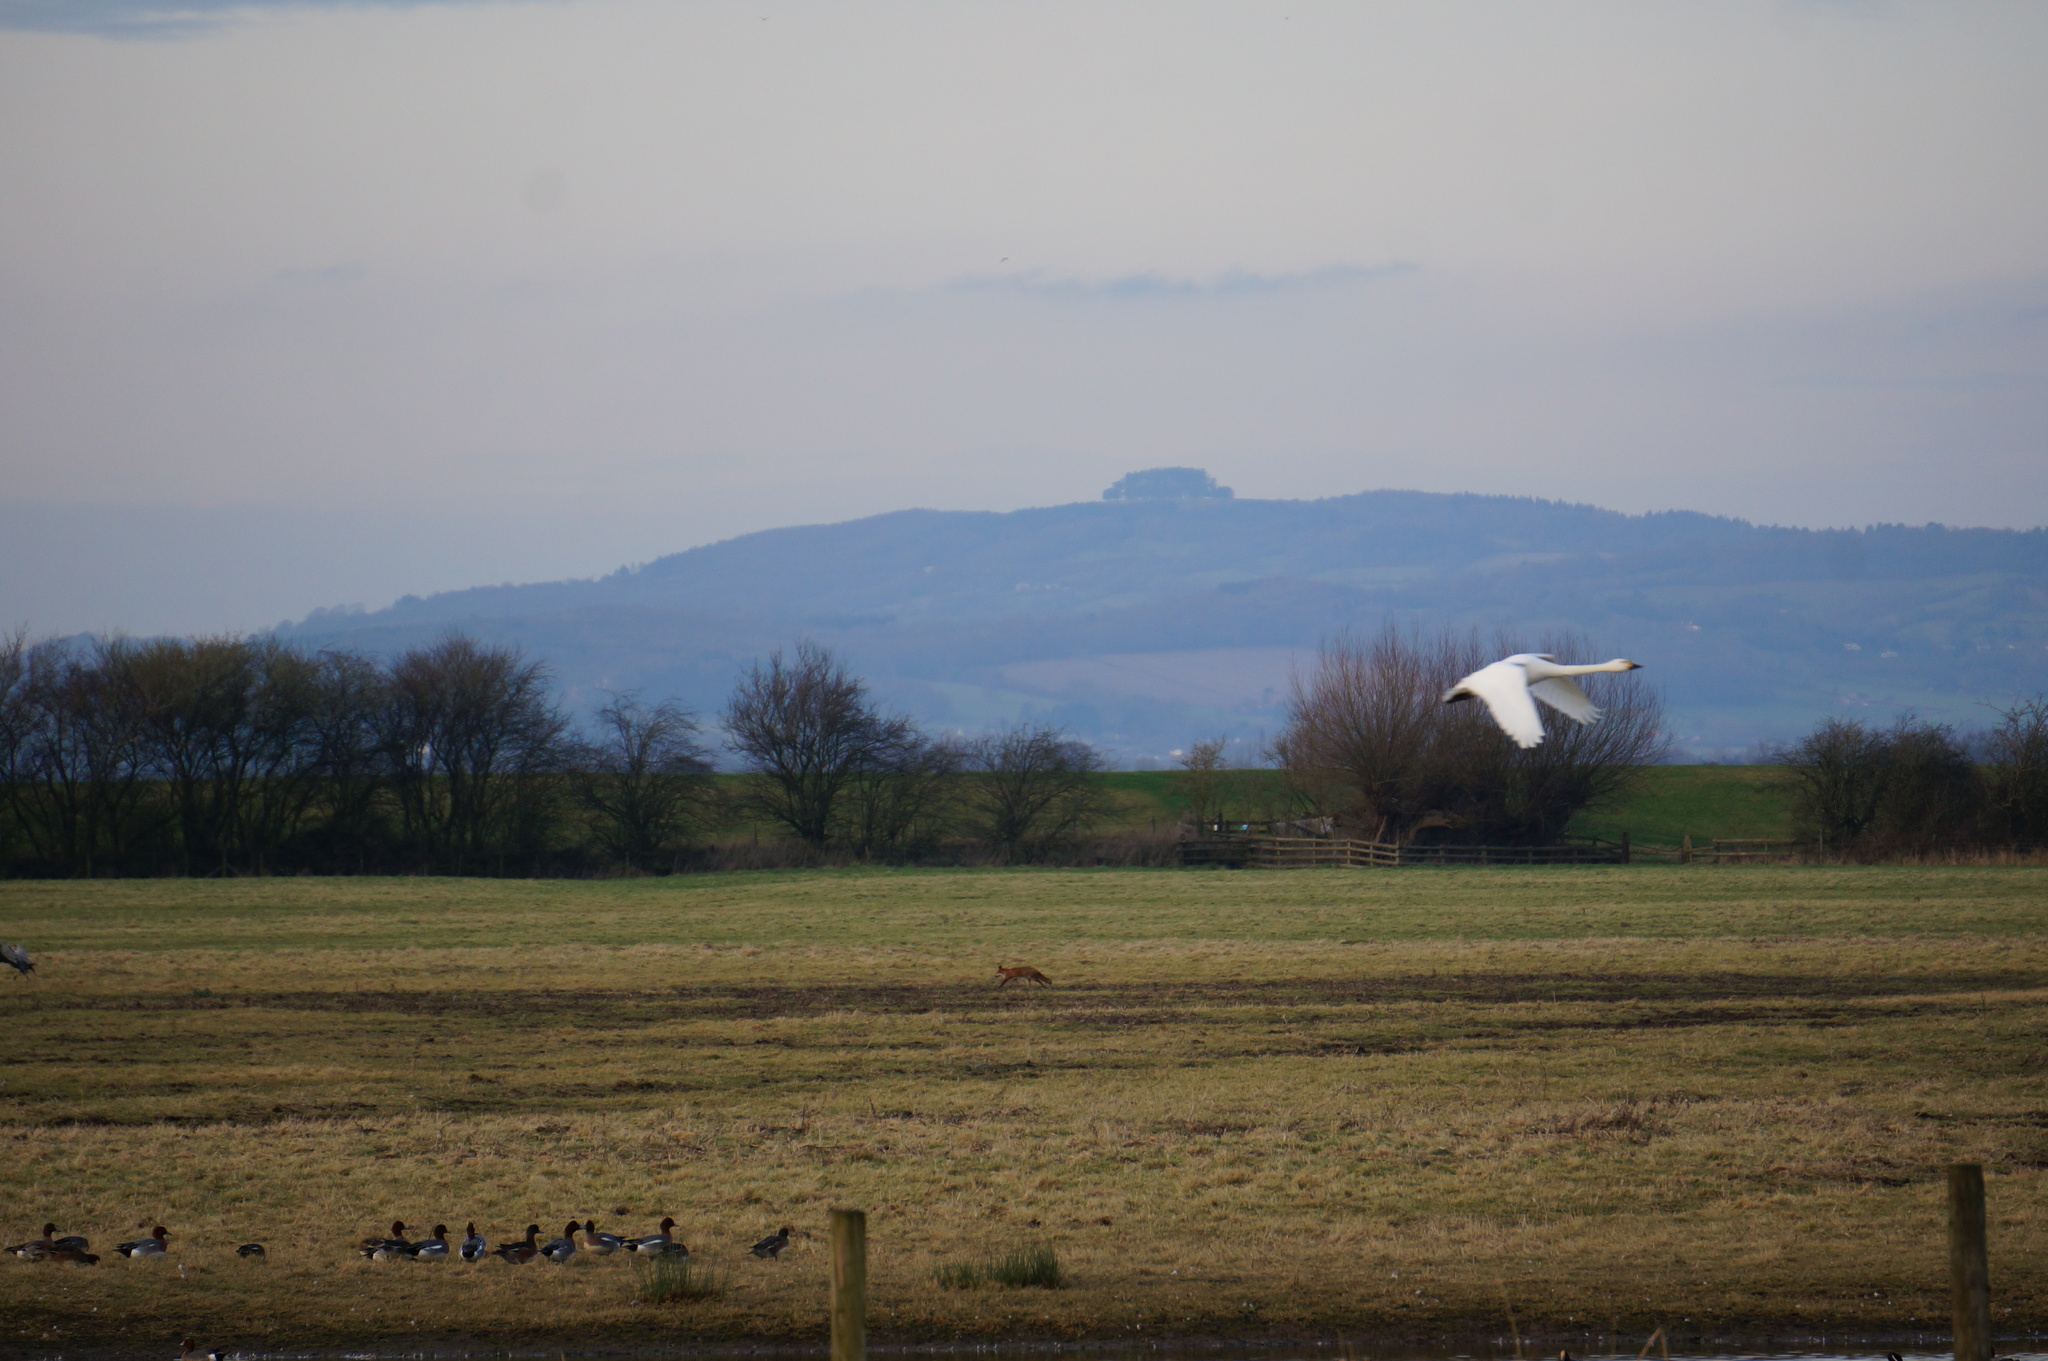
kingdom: Animalia
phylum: Chordata
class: Mammalia
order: Carnivora
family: Canidae
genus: Vulpes
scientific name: Vulpes vulpes
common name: Red fox
